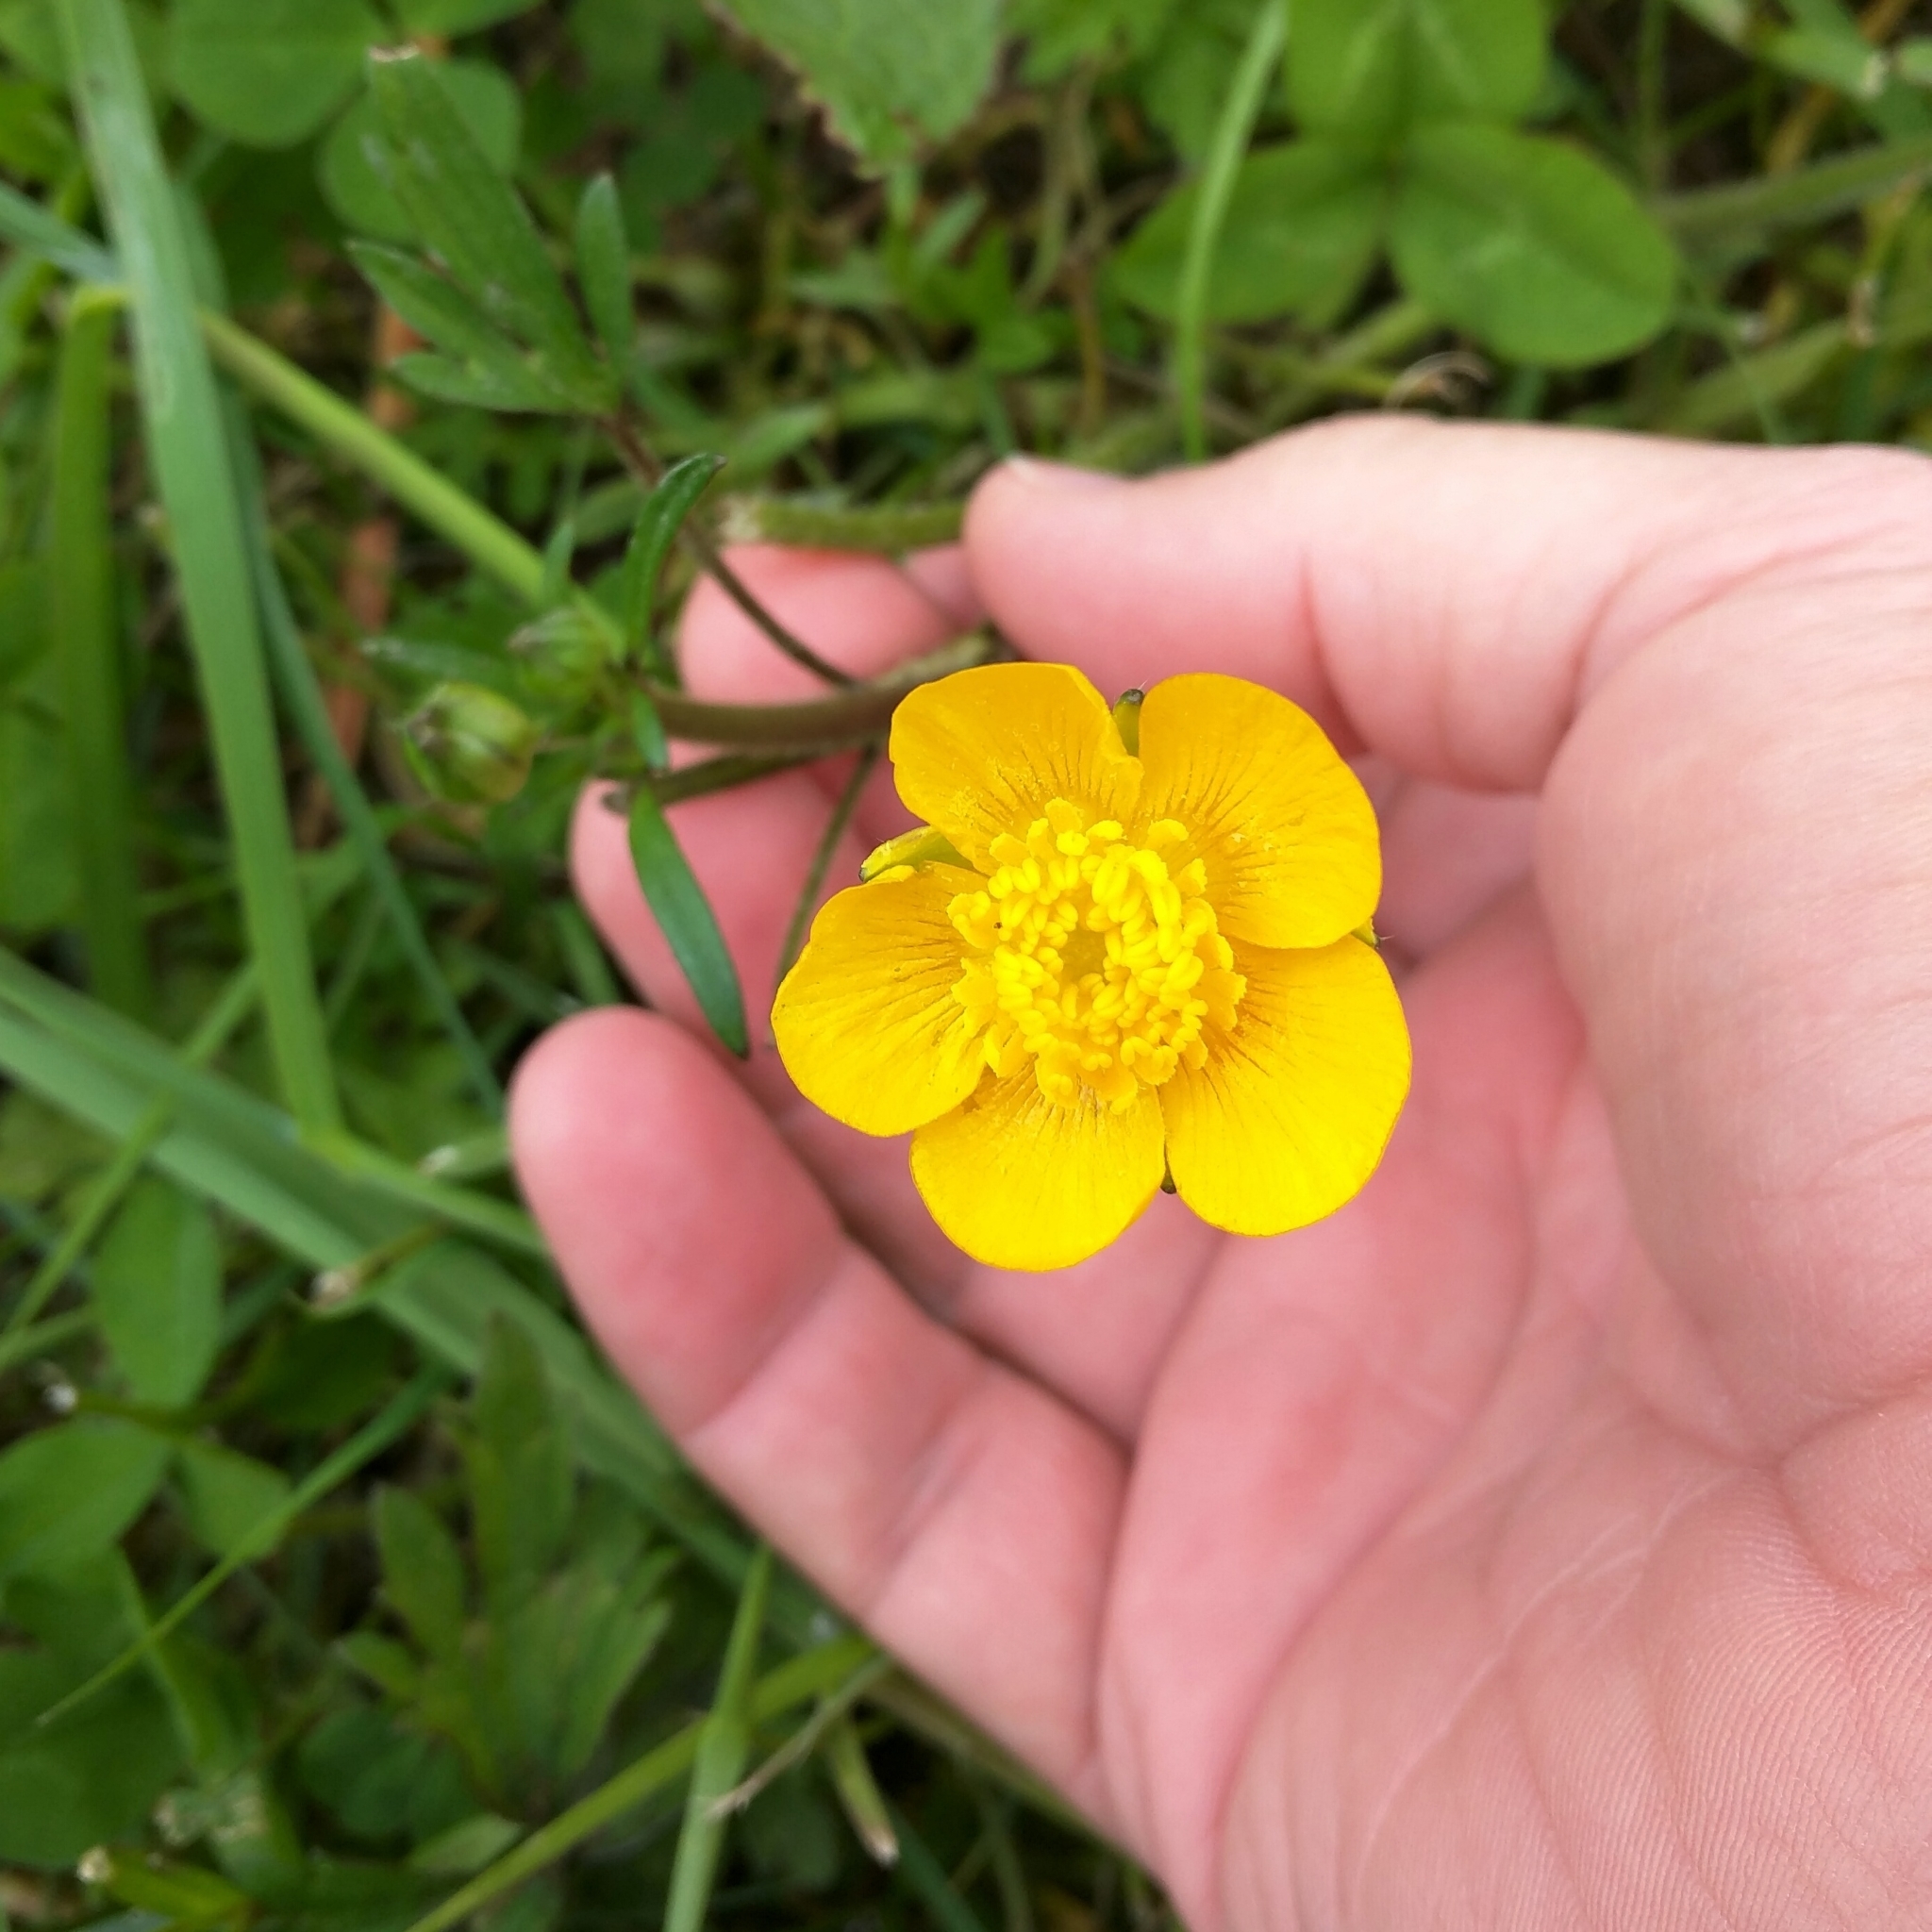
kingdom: Plantae
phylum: Tracheophyta
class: Magnoliopsida
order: Ranunculales
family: Ranunculaceae
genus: Ranunculus
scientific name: Ranunculus repens
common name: Creeping buttercup
